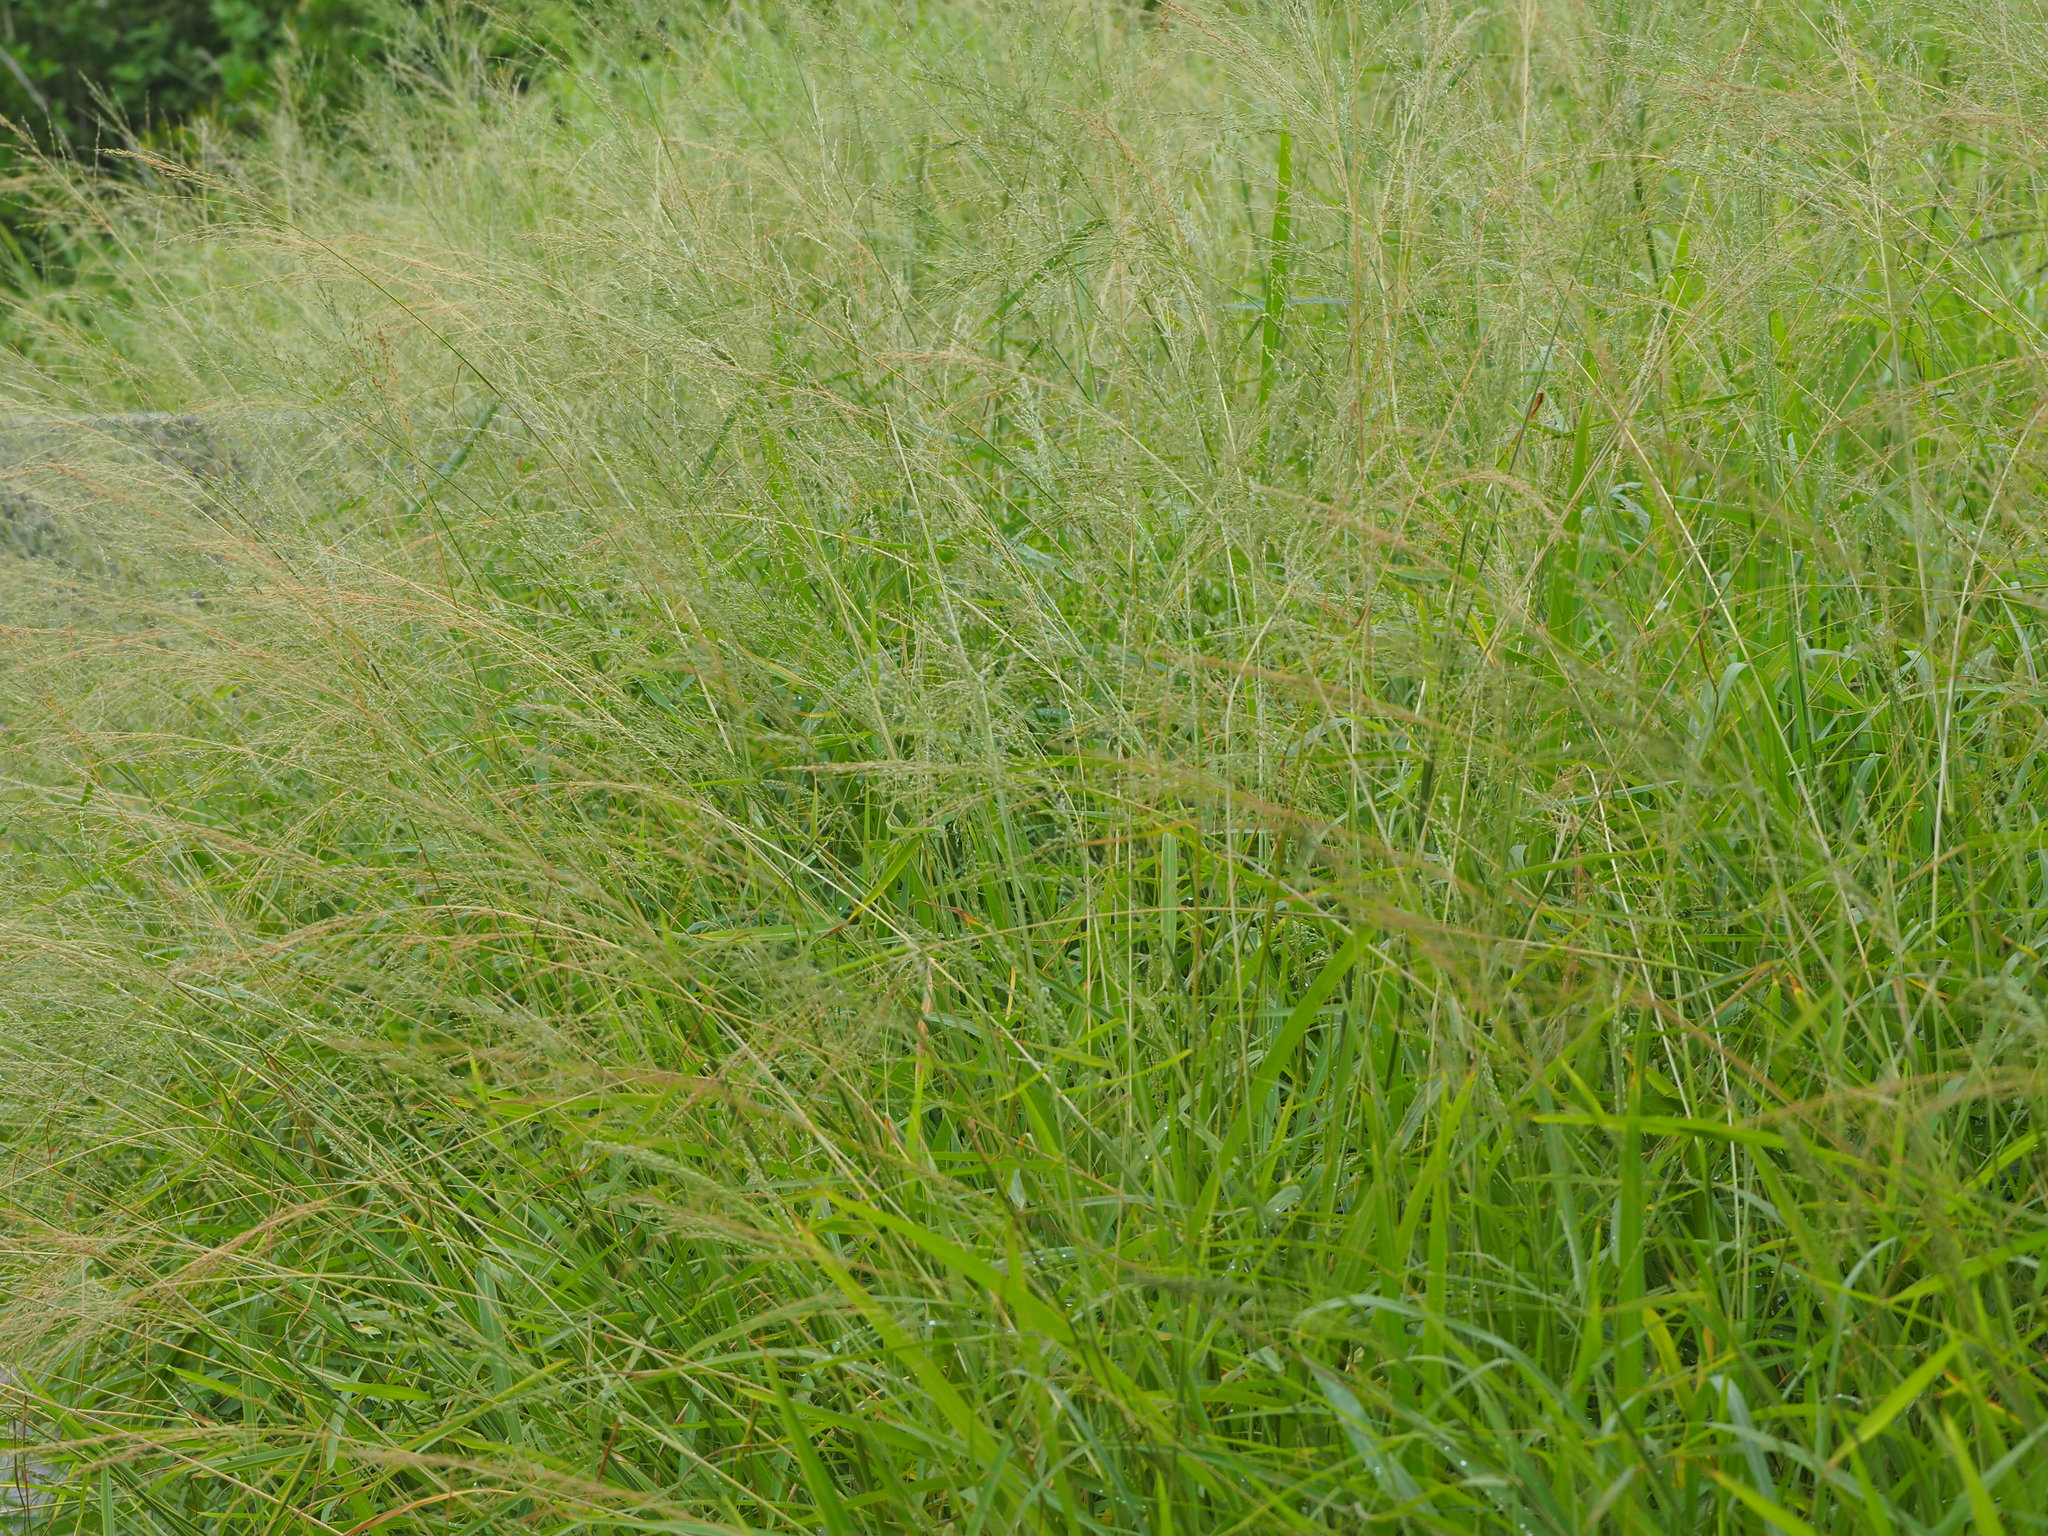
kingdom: Plantae
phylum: Tracheophyta
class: Liliopsida
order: Poales
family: Poaceae
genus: Megathyrsus
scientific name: Megathyrsus maximus
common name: Guineagrass
